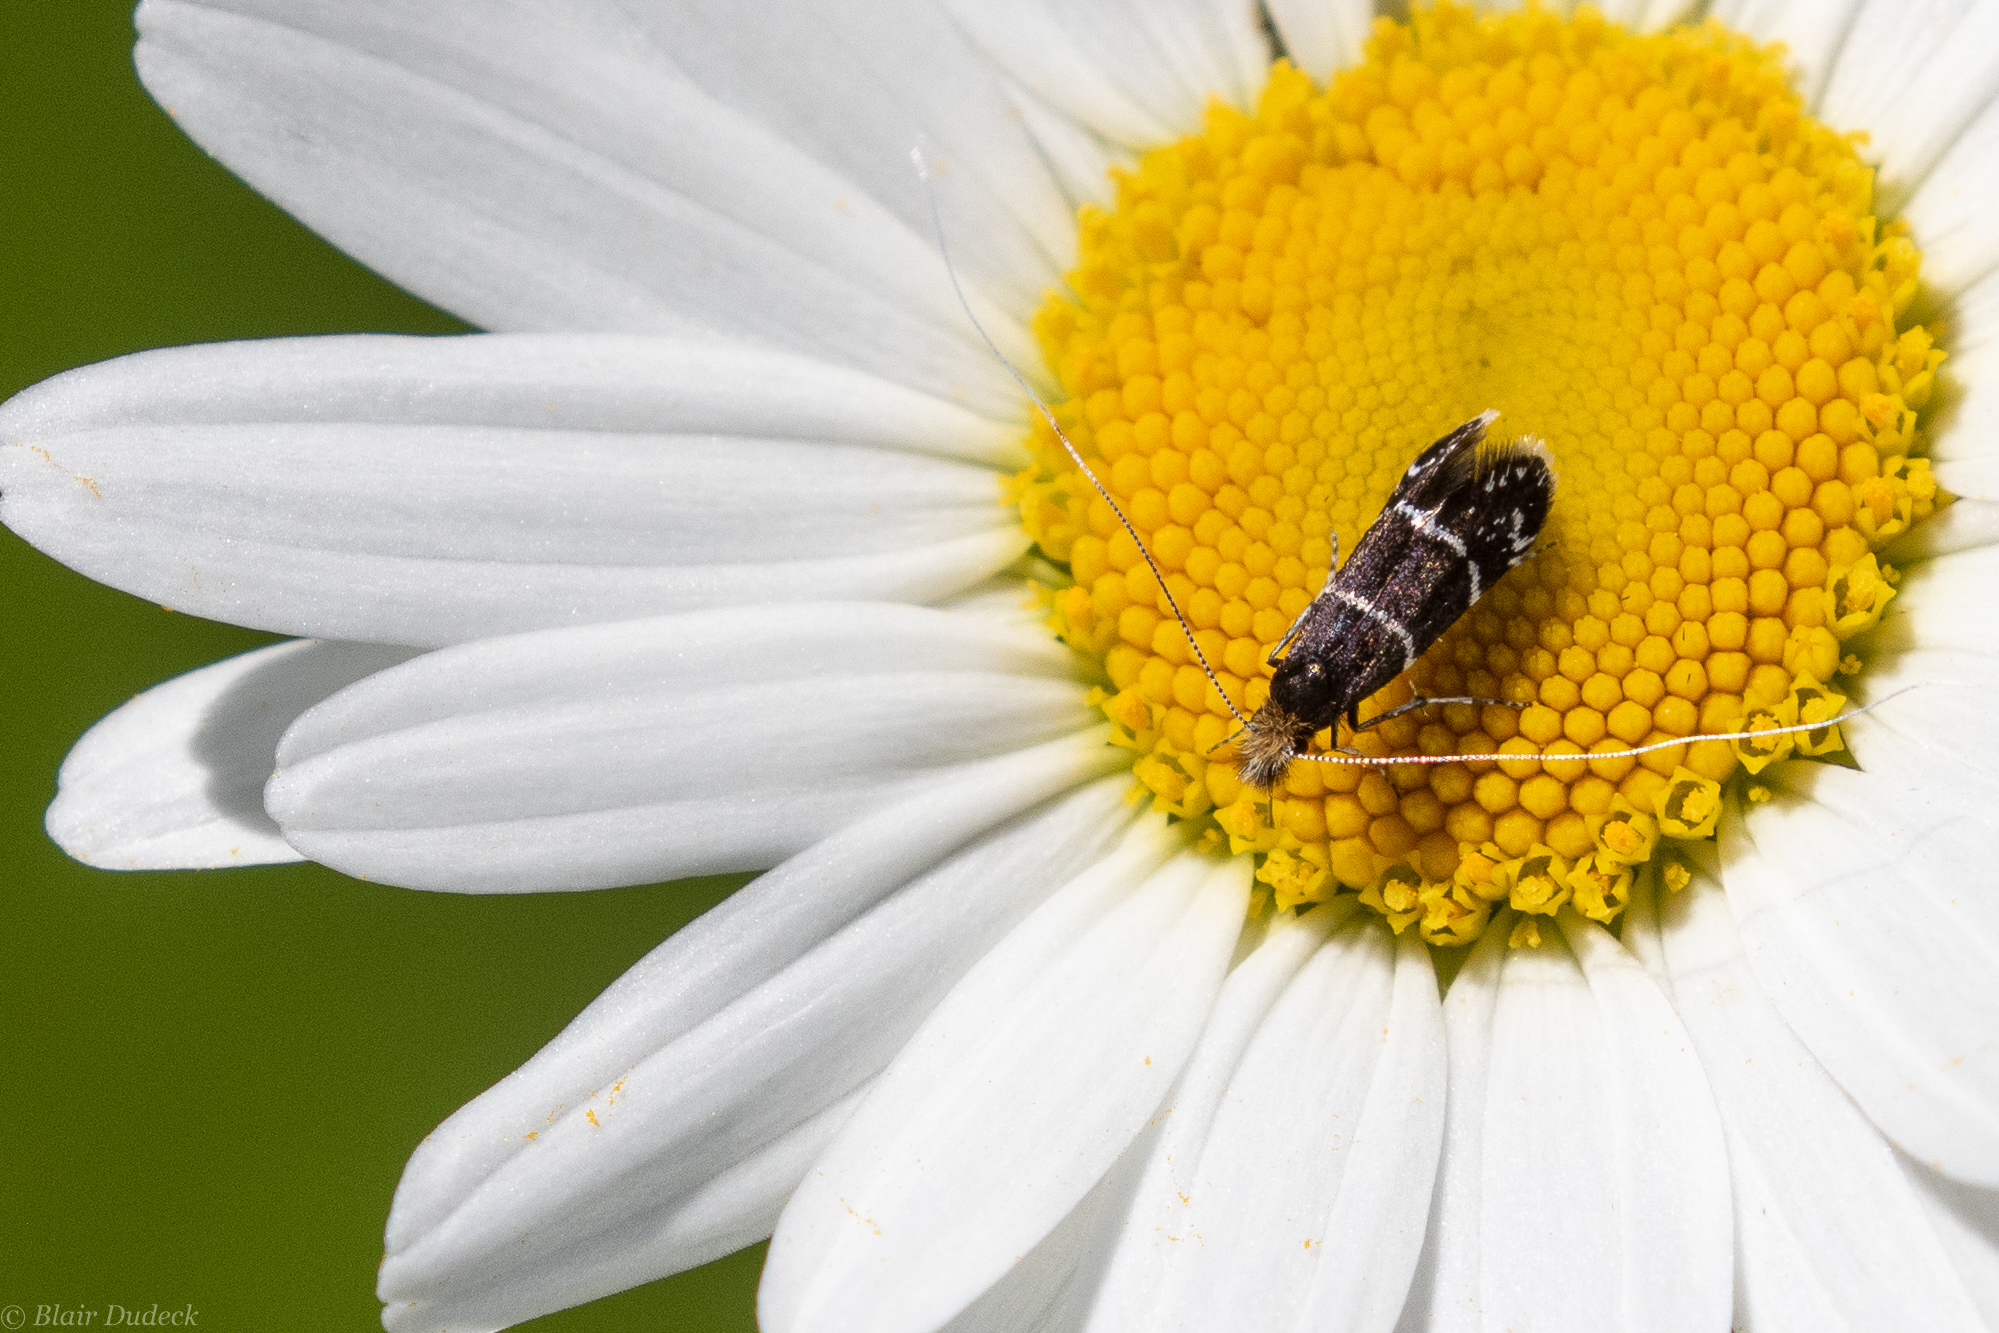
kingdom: Animalia
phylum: Arthropoda
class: Insecta
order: Lepidoptera
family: Adelidae
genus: Adela
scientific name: Adela septentrionella
